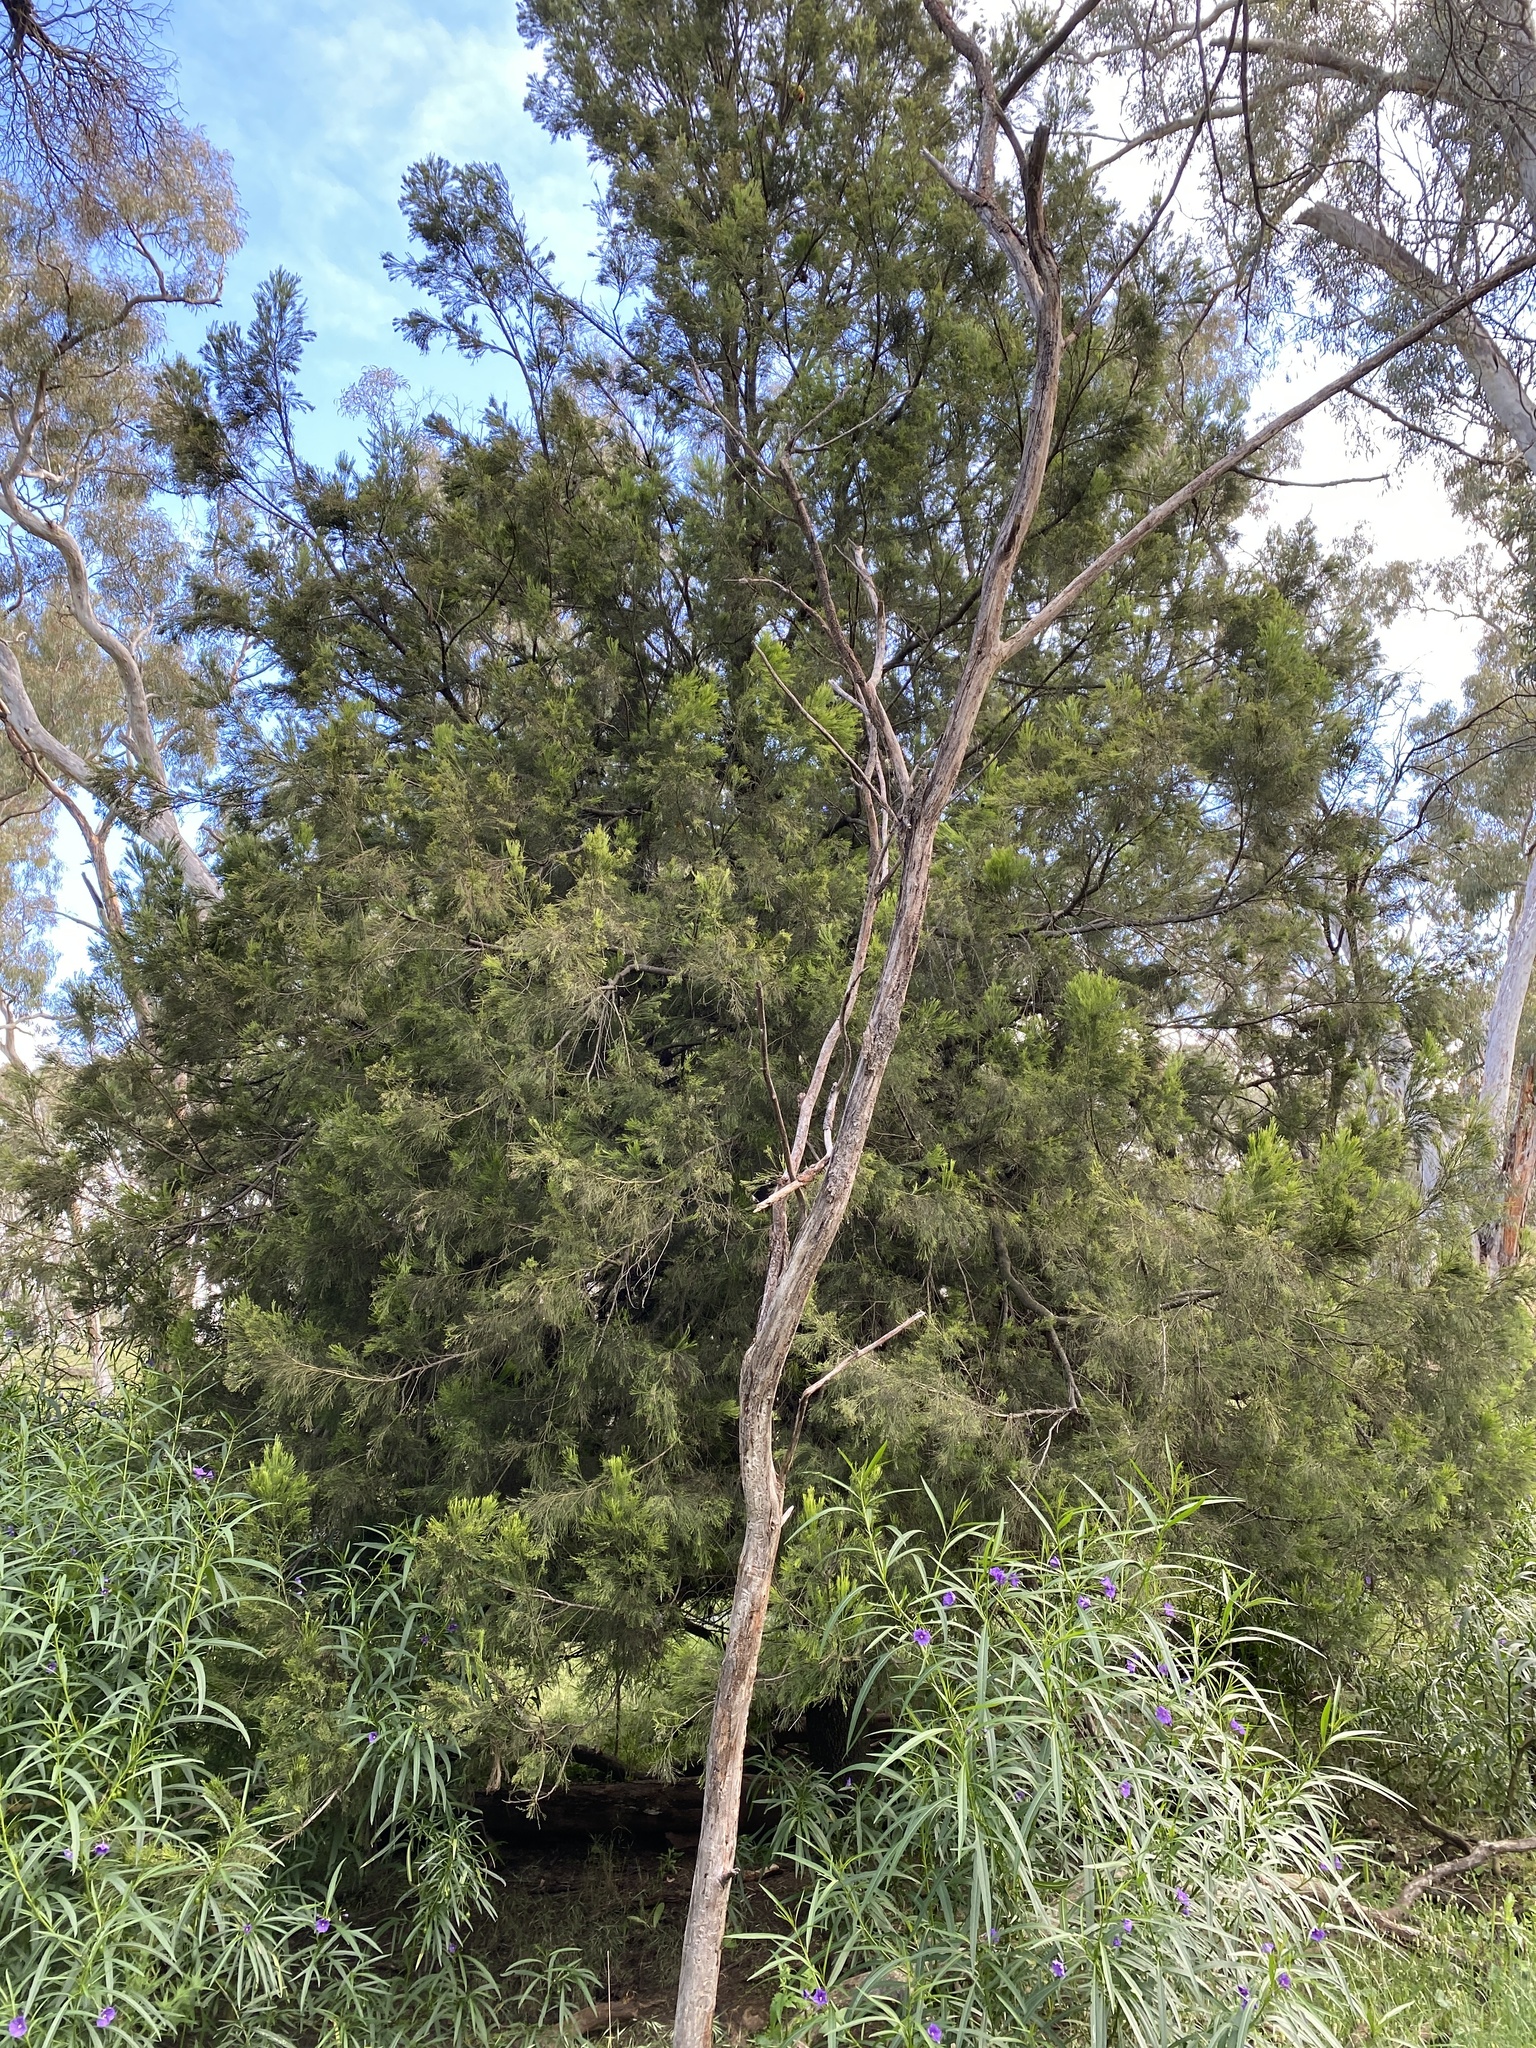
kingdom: Plantae
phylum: Tracheophyta
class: Magnoliopsida
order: Santalales
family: Santalaceae
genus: Exocarpos
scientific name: Exocarpos cupressiformis
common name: Cherry ballart
